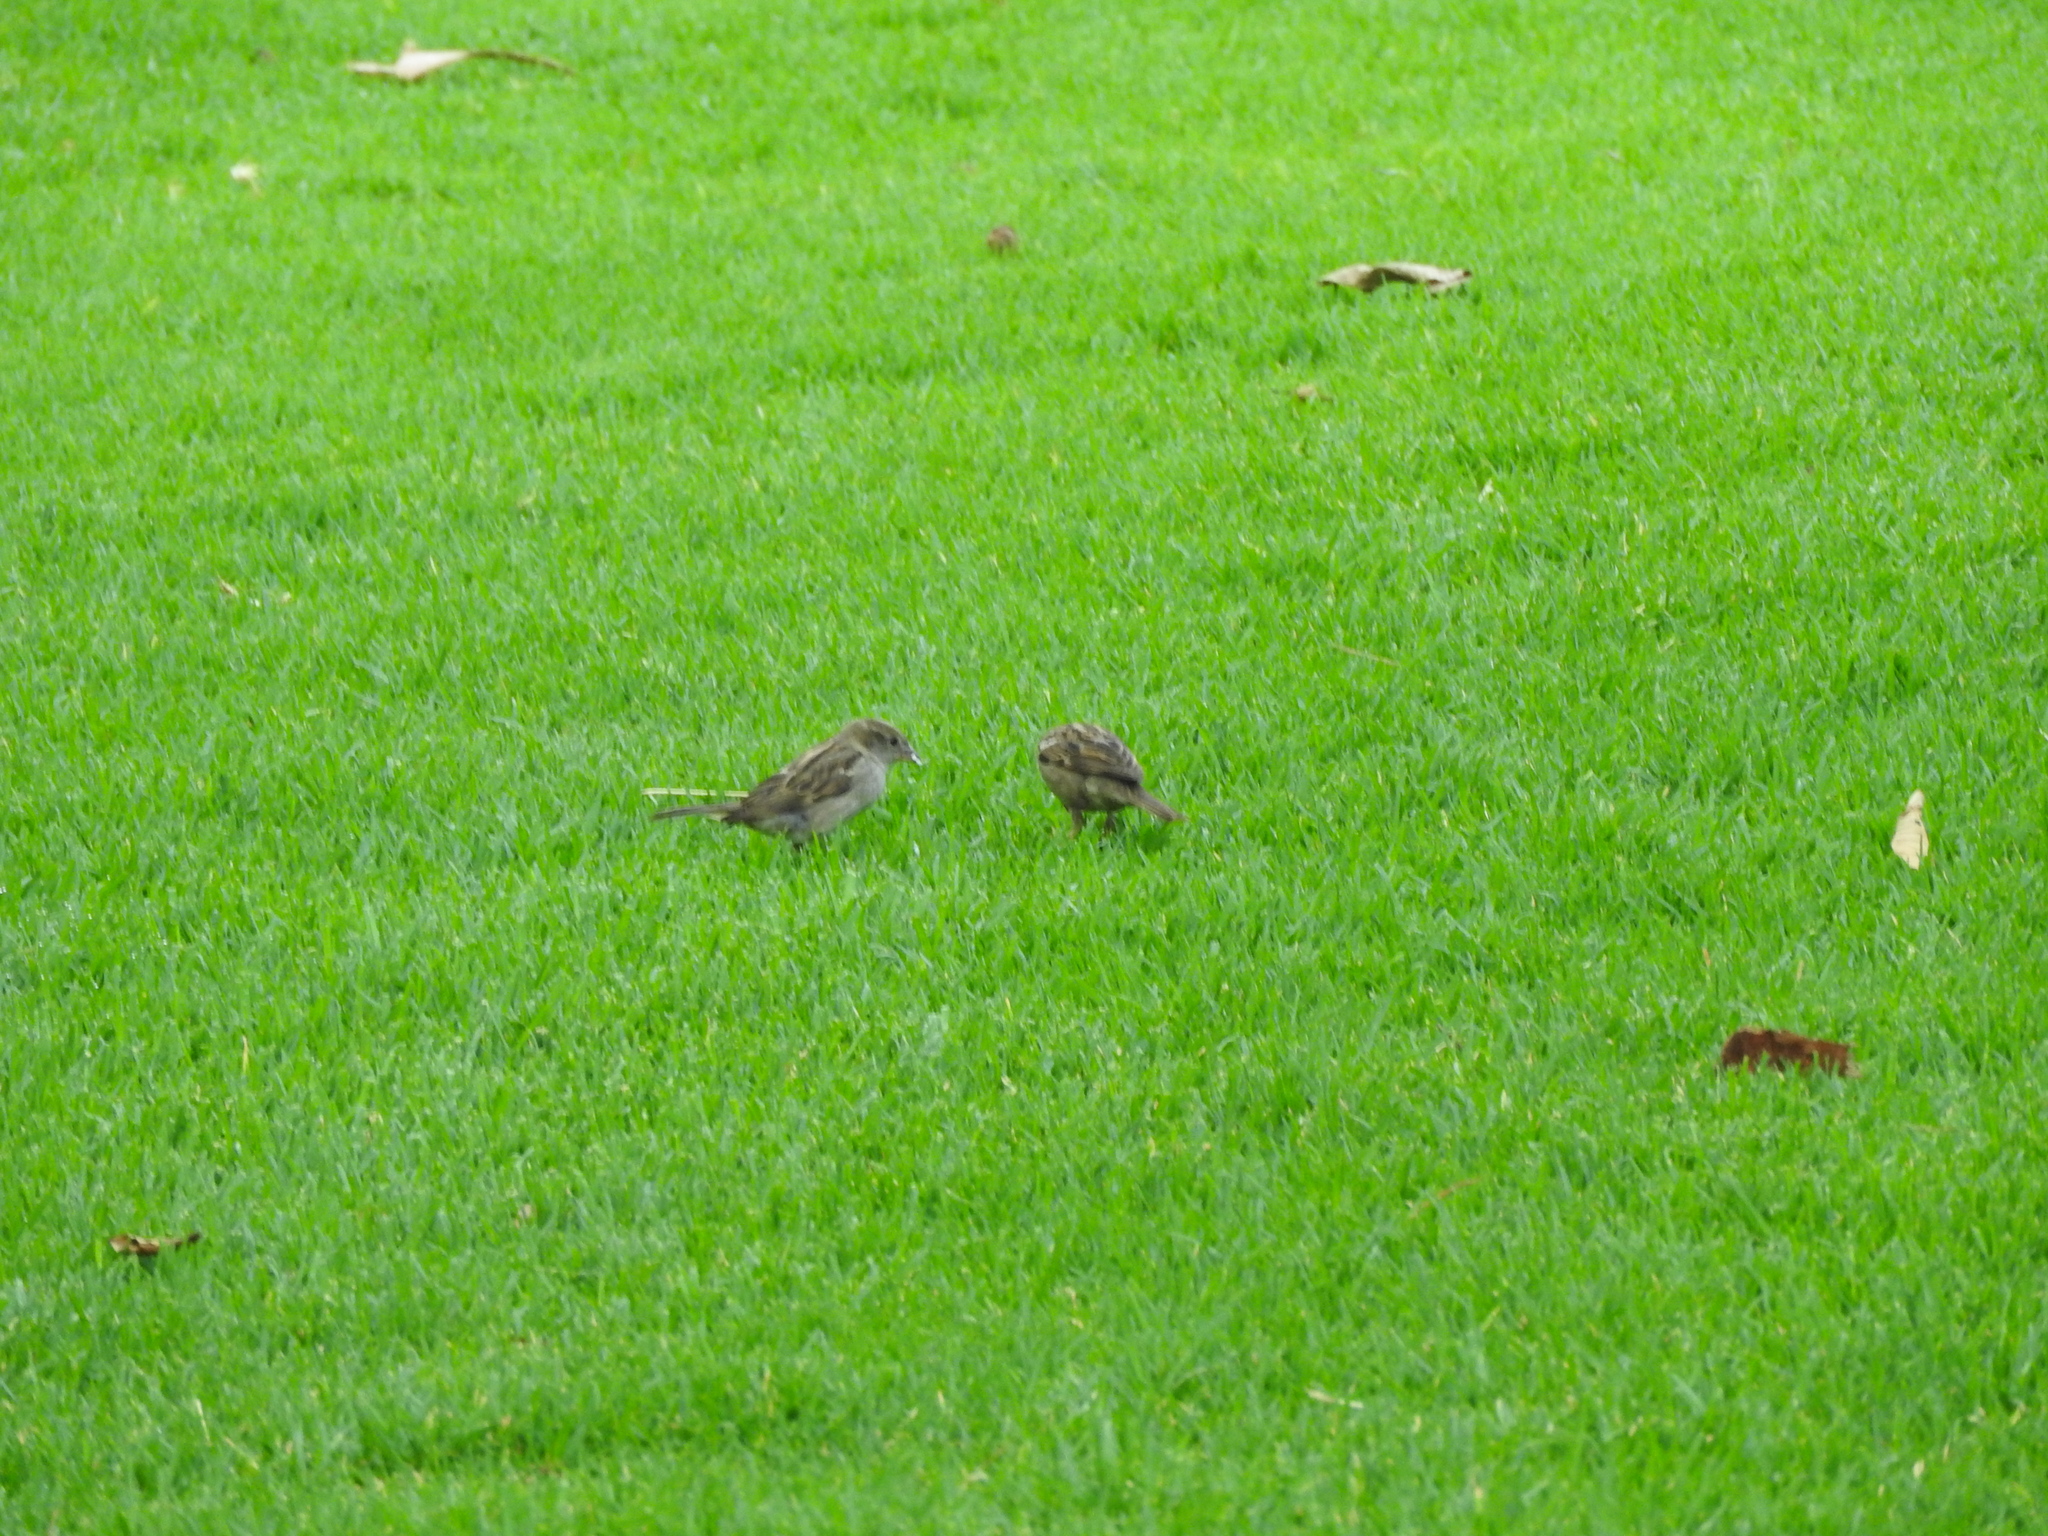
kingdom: Animalia
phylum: Chordata
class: Aves
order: Passeriformes
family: Passeridae
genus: Passer
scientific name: Passer domesticus
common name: House sparrow
